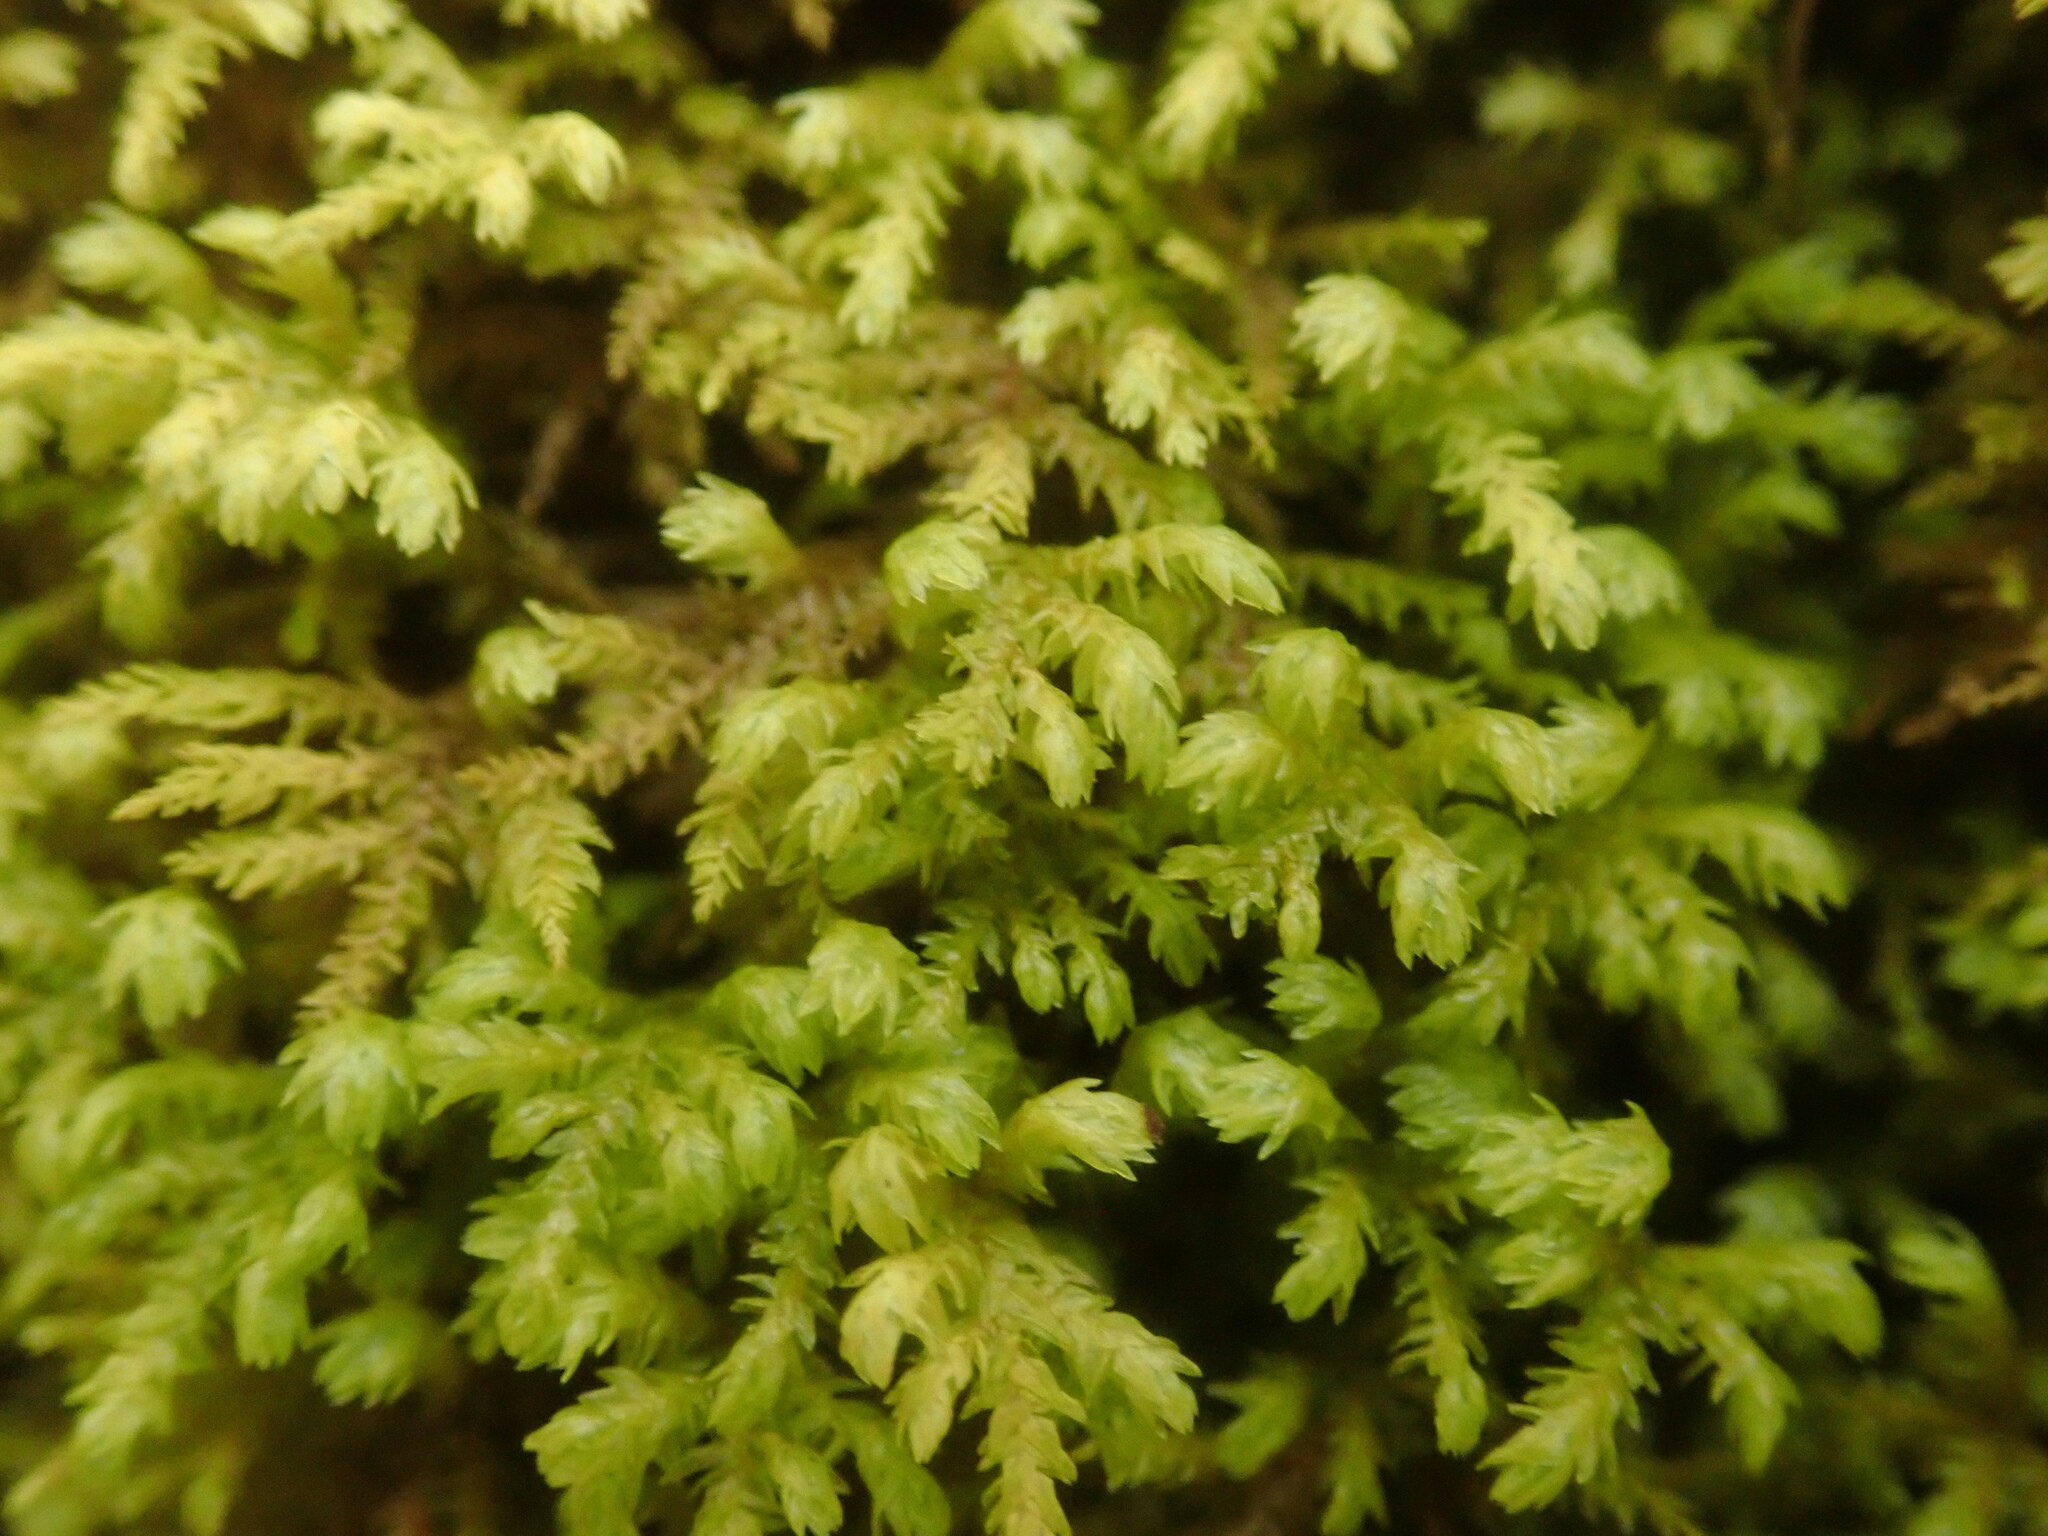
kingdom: Plantae
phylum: Bryophyta
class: Bryopsida
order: Hypnales
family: Neckeraceae
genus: Pseudanomodon
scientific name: Pseudanomodon attenuatus
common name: Tree-skirt moss
